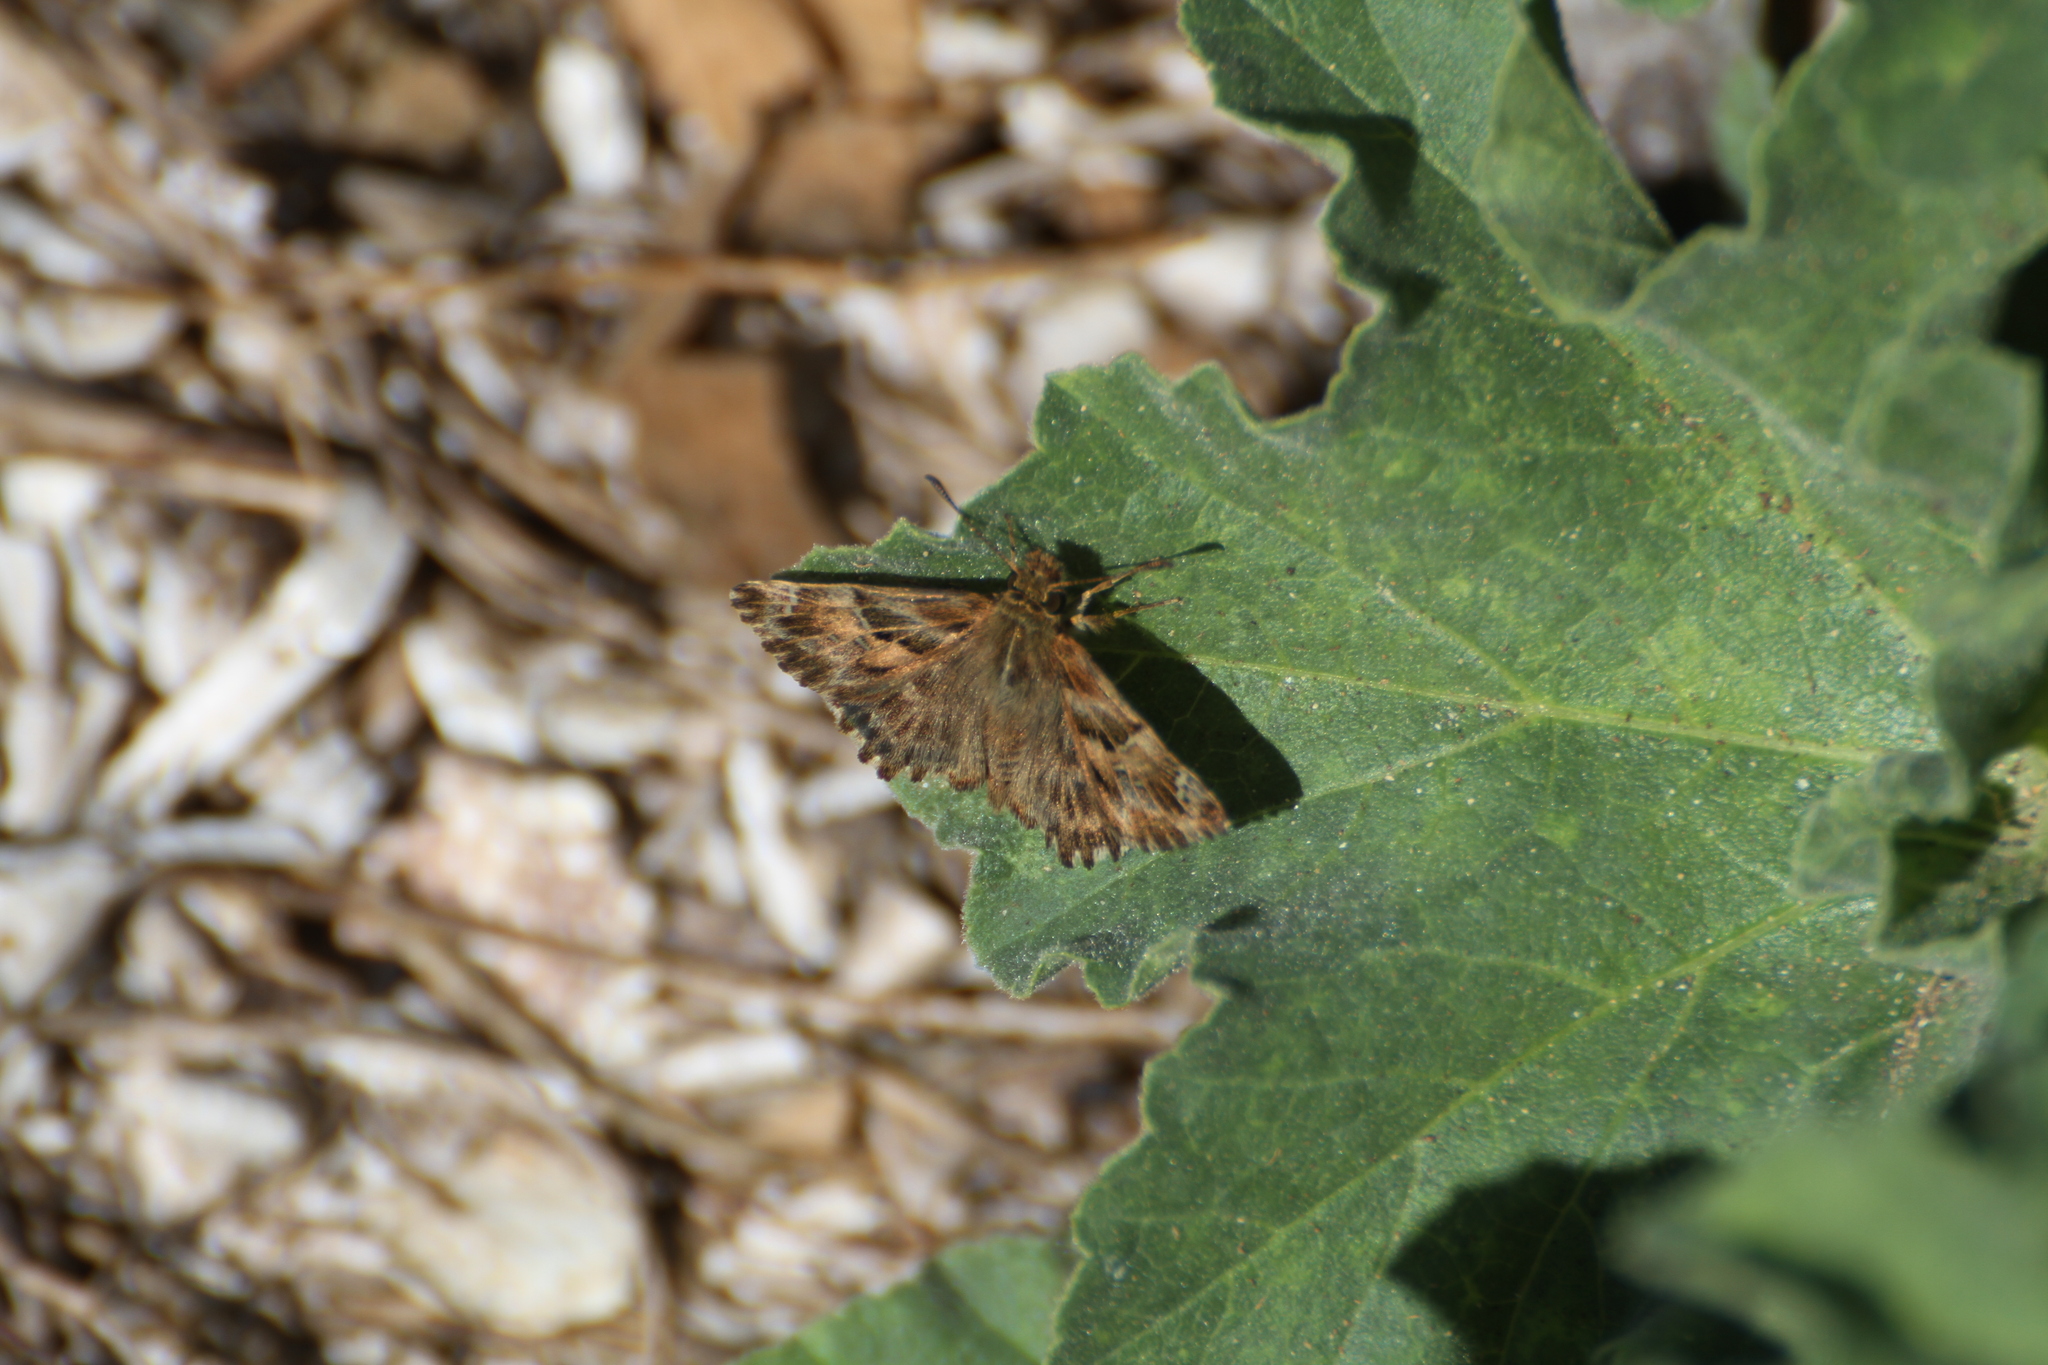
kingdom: Animalia
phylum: Arthropoda
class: Insecta
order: Lepidoptera
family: Hesperiidae
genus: Carcharodus
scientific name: Carcharodus alceae
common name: Mallow skipper
